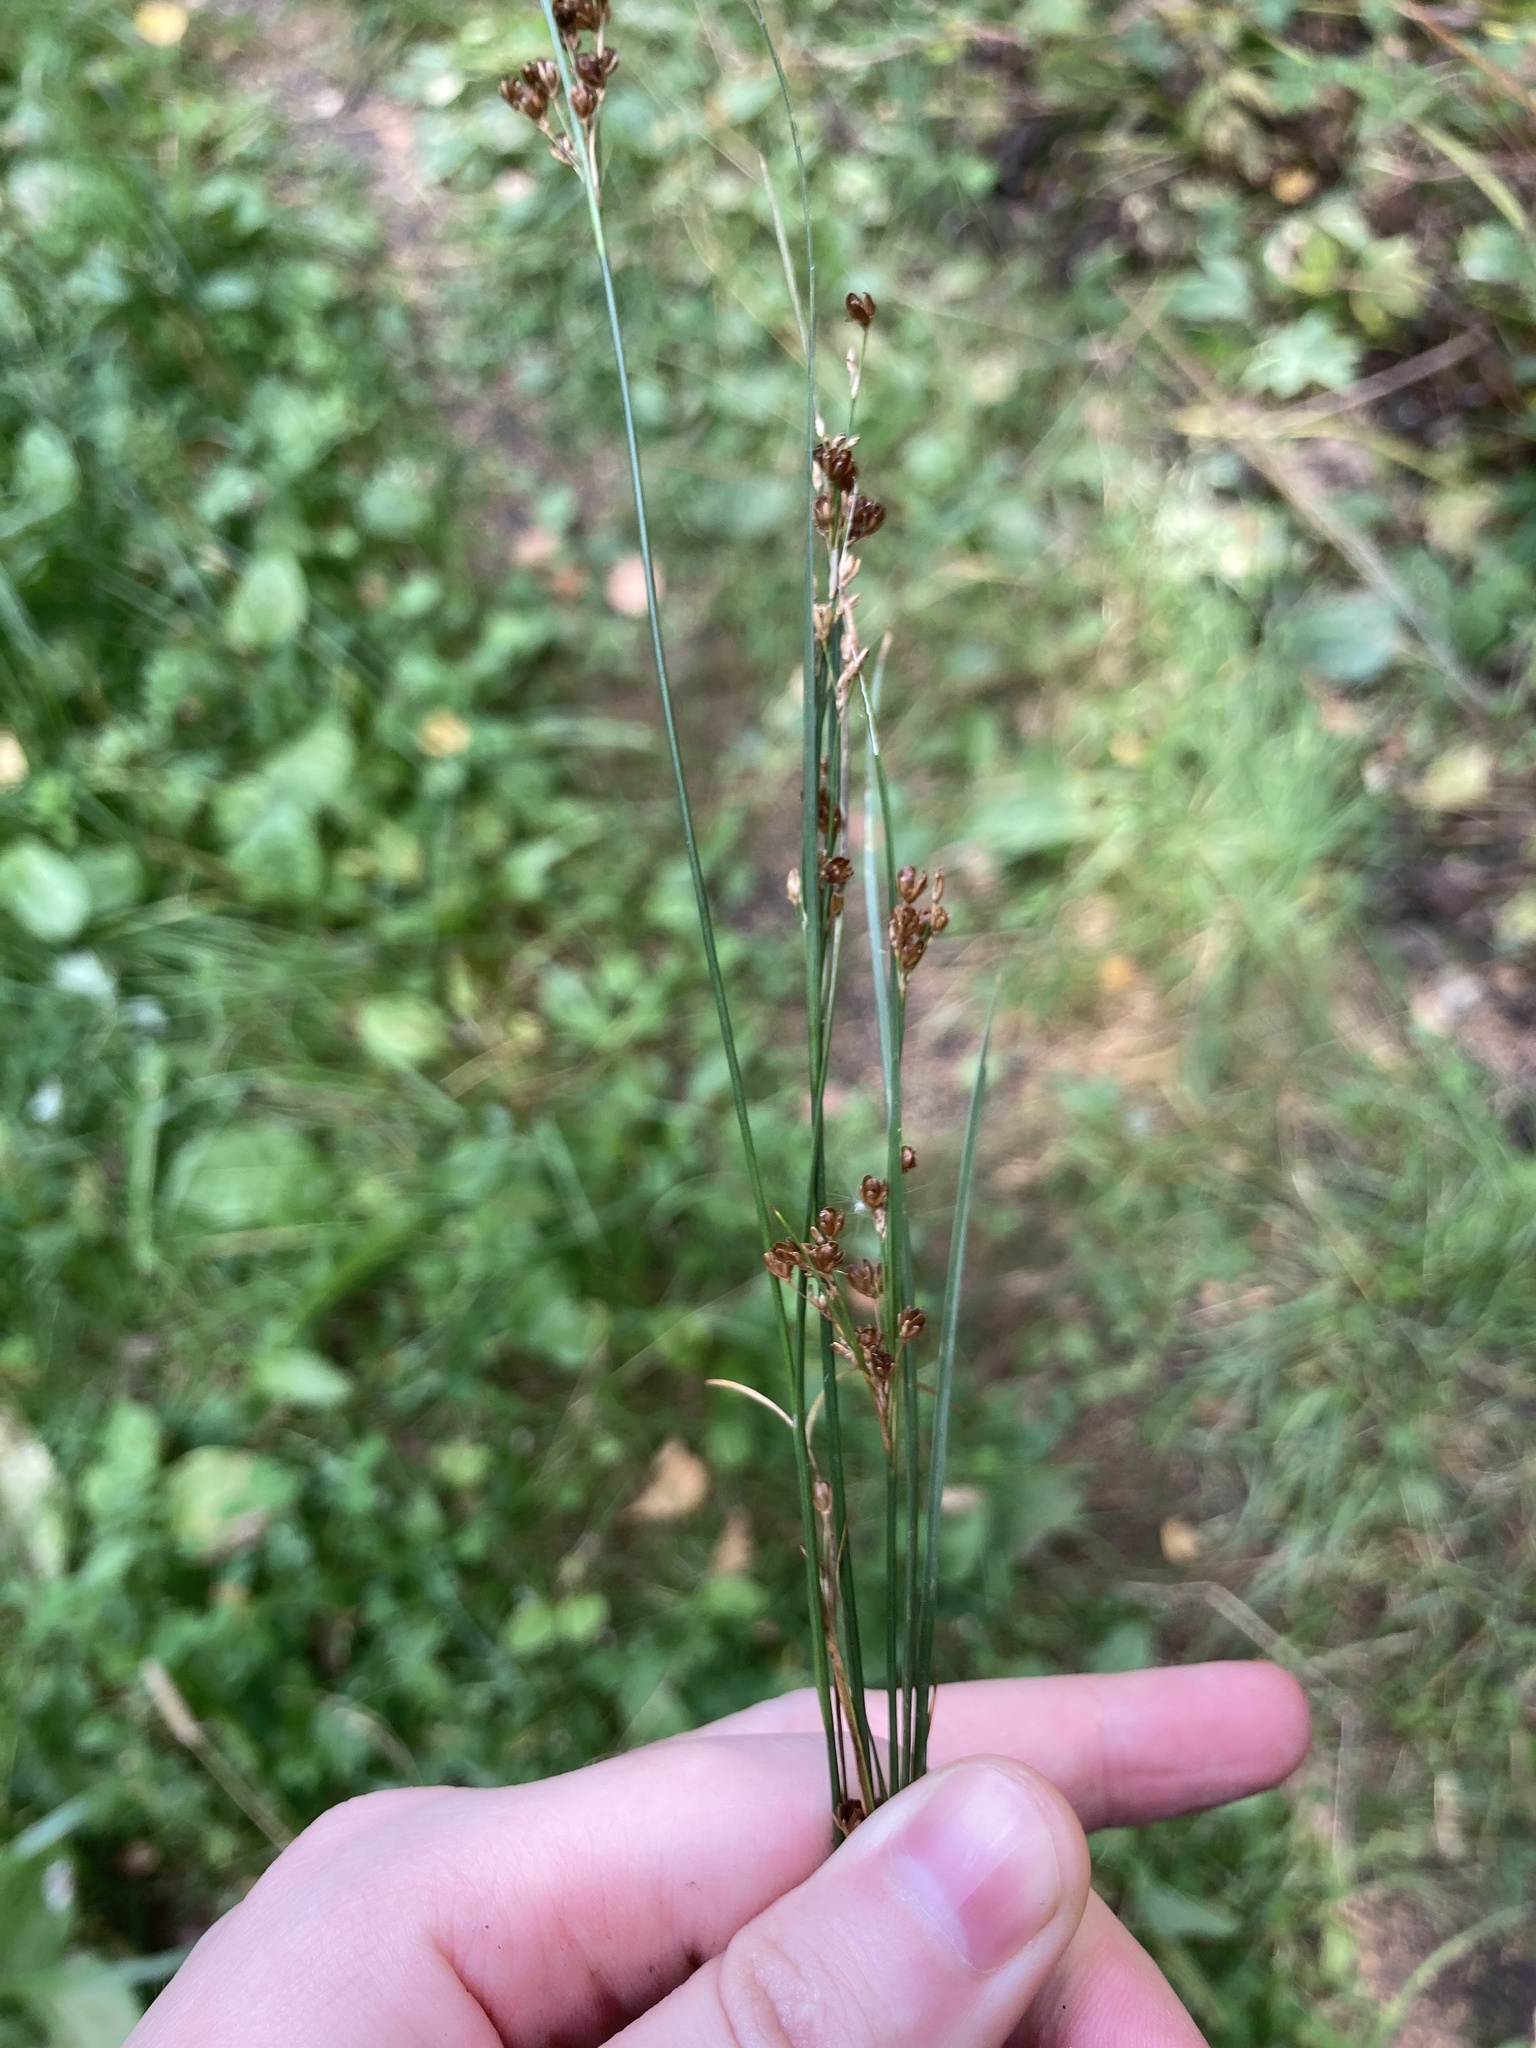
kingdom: Plantae
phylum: Tracheophyta
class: Liliopsida
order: Poales
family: Juncaceae
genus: Juncus
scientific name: Juncus compressus
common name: Round-fruited rush
